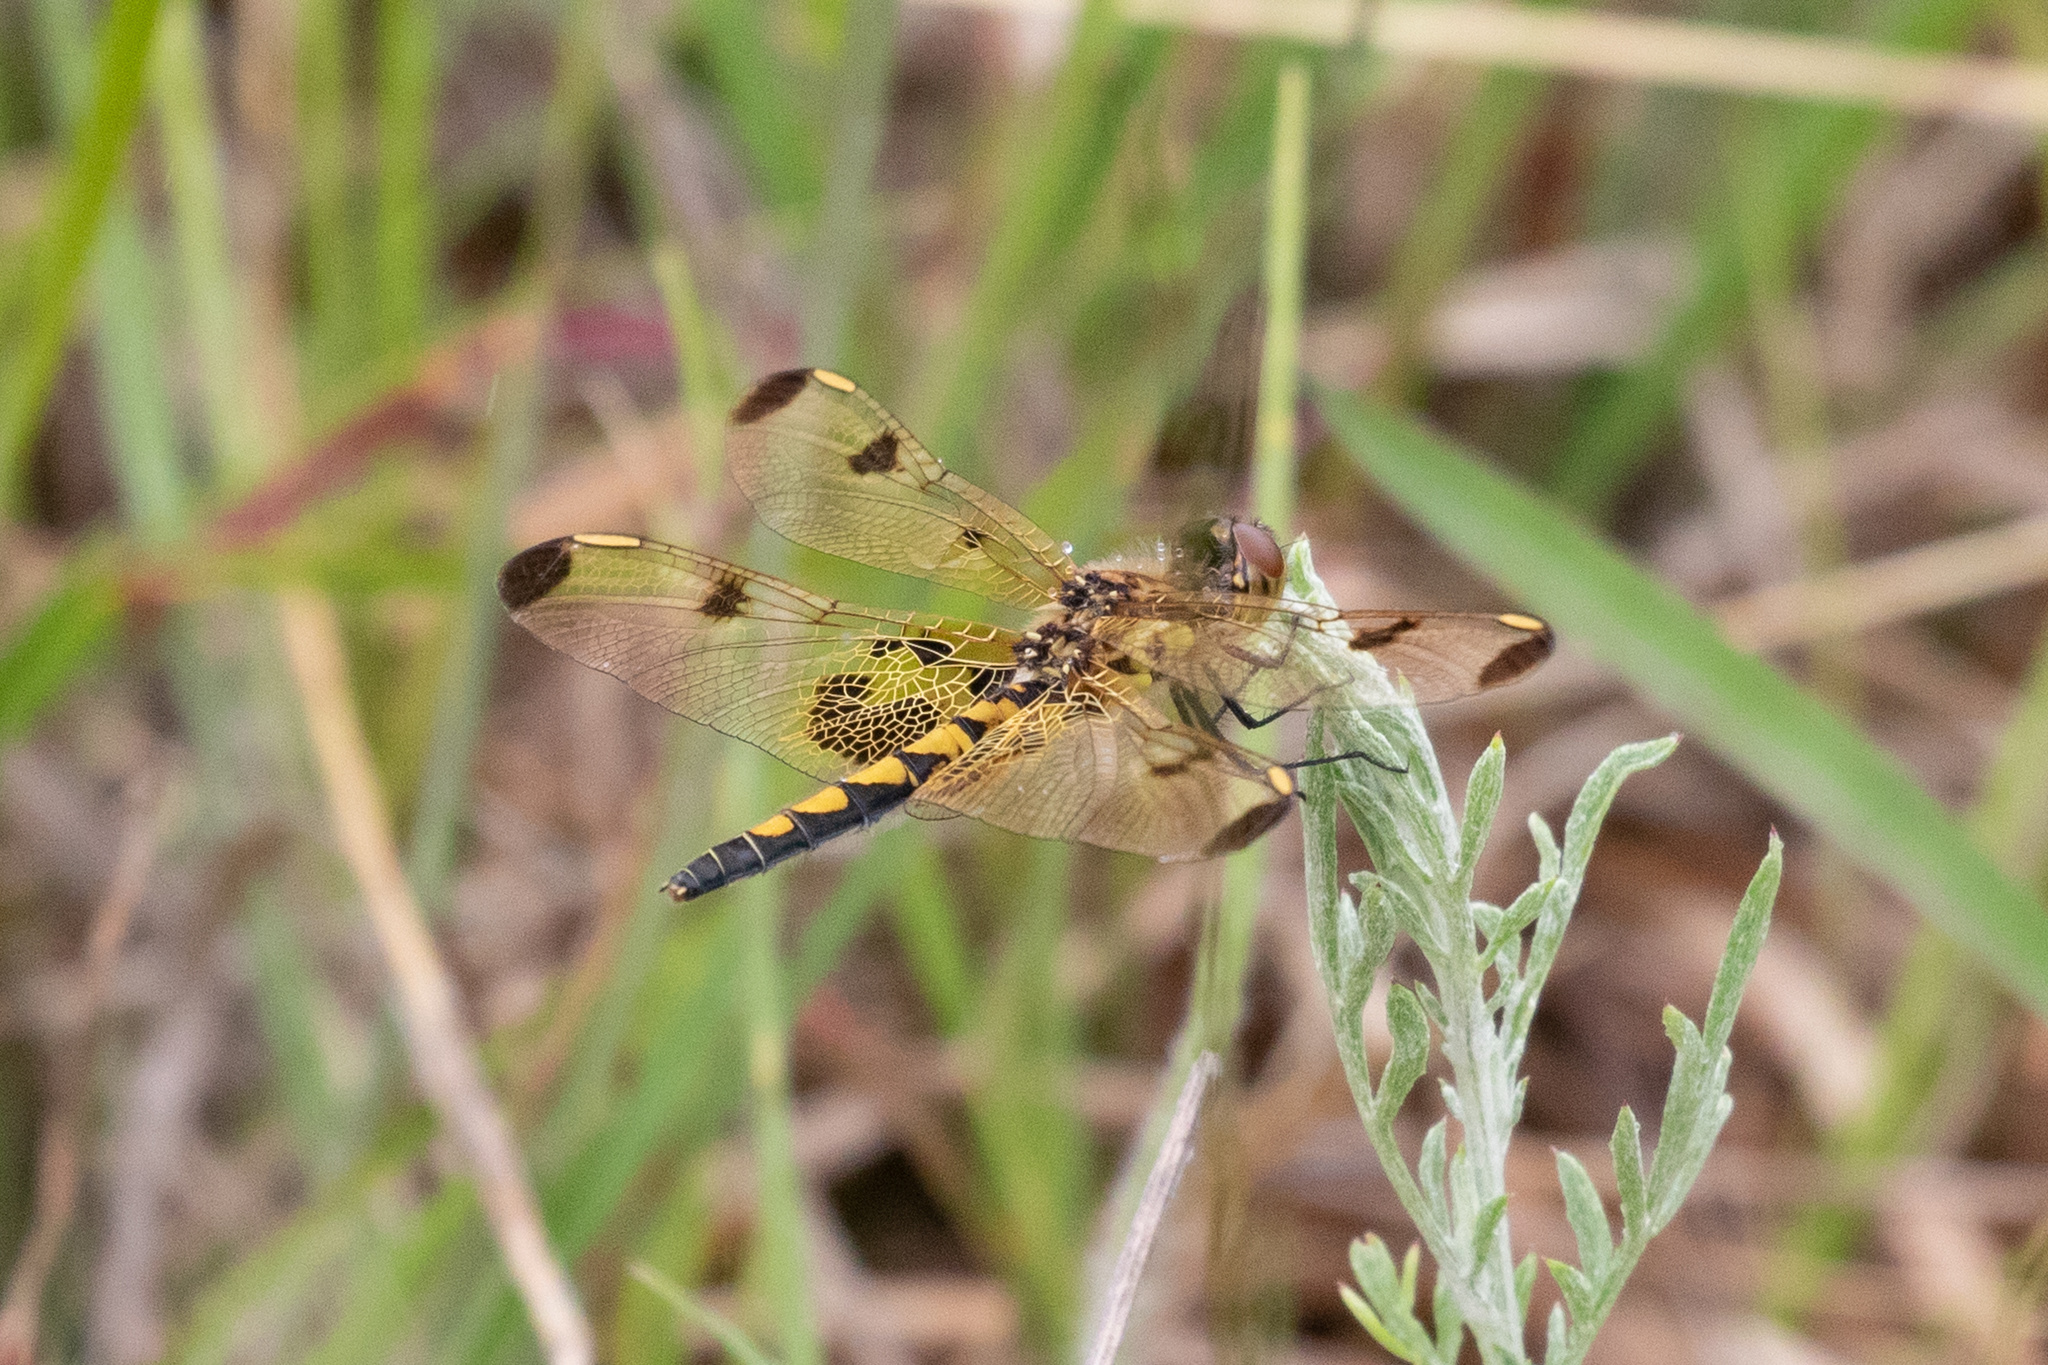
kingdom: Animalia
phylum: Arthropoda
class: Insecta
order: Odonata
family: Libellulidae
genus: Celithemis
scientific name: Celithemis elisa
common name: Calico pennant
